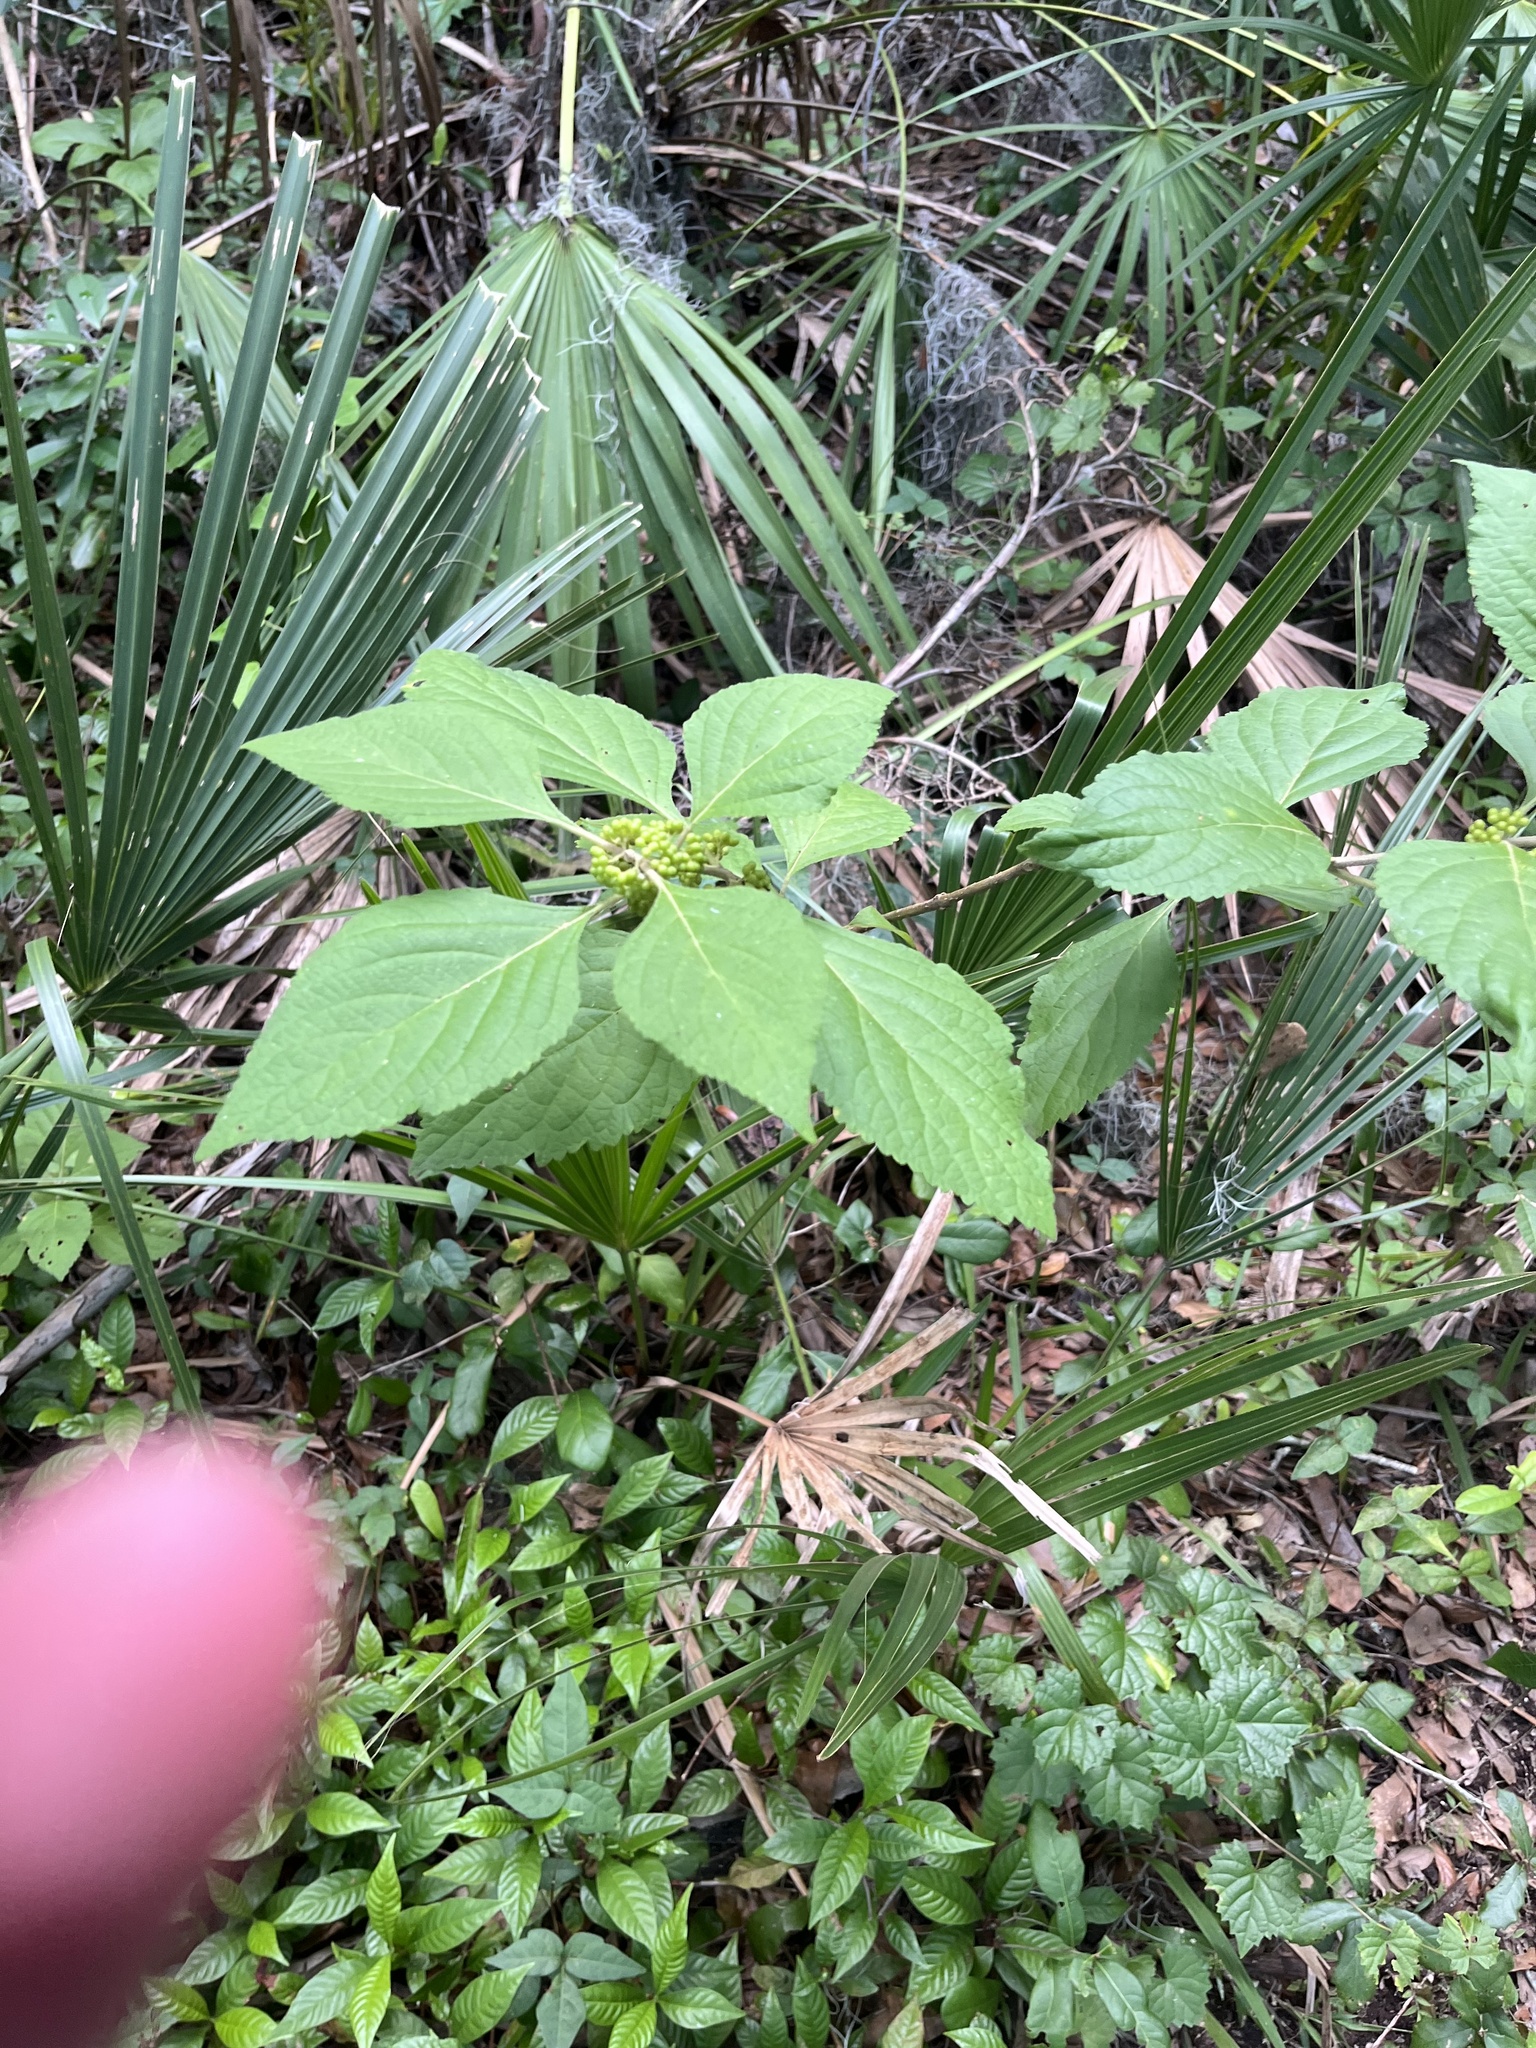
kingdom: Plantae
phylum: Tracheophyta
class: Magnoliopsida
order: Lamiales
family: Lamiaceae
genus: Callicarpa
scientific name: Callicarpa americana
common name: American beautyberry
